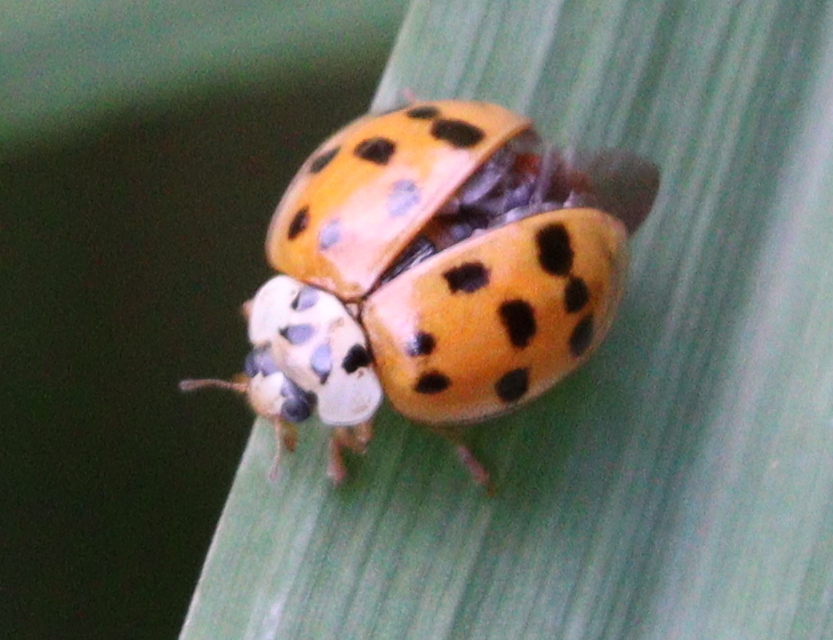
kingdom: Animalia
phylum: Arthropoda
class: Insecta
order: Coleoptera
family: Coccinellidae
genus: Harmonia
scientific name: Harmonia axyridis
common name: Harlequin ladybird
